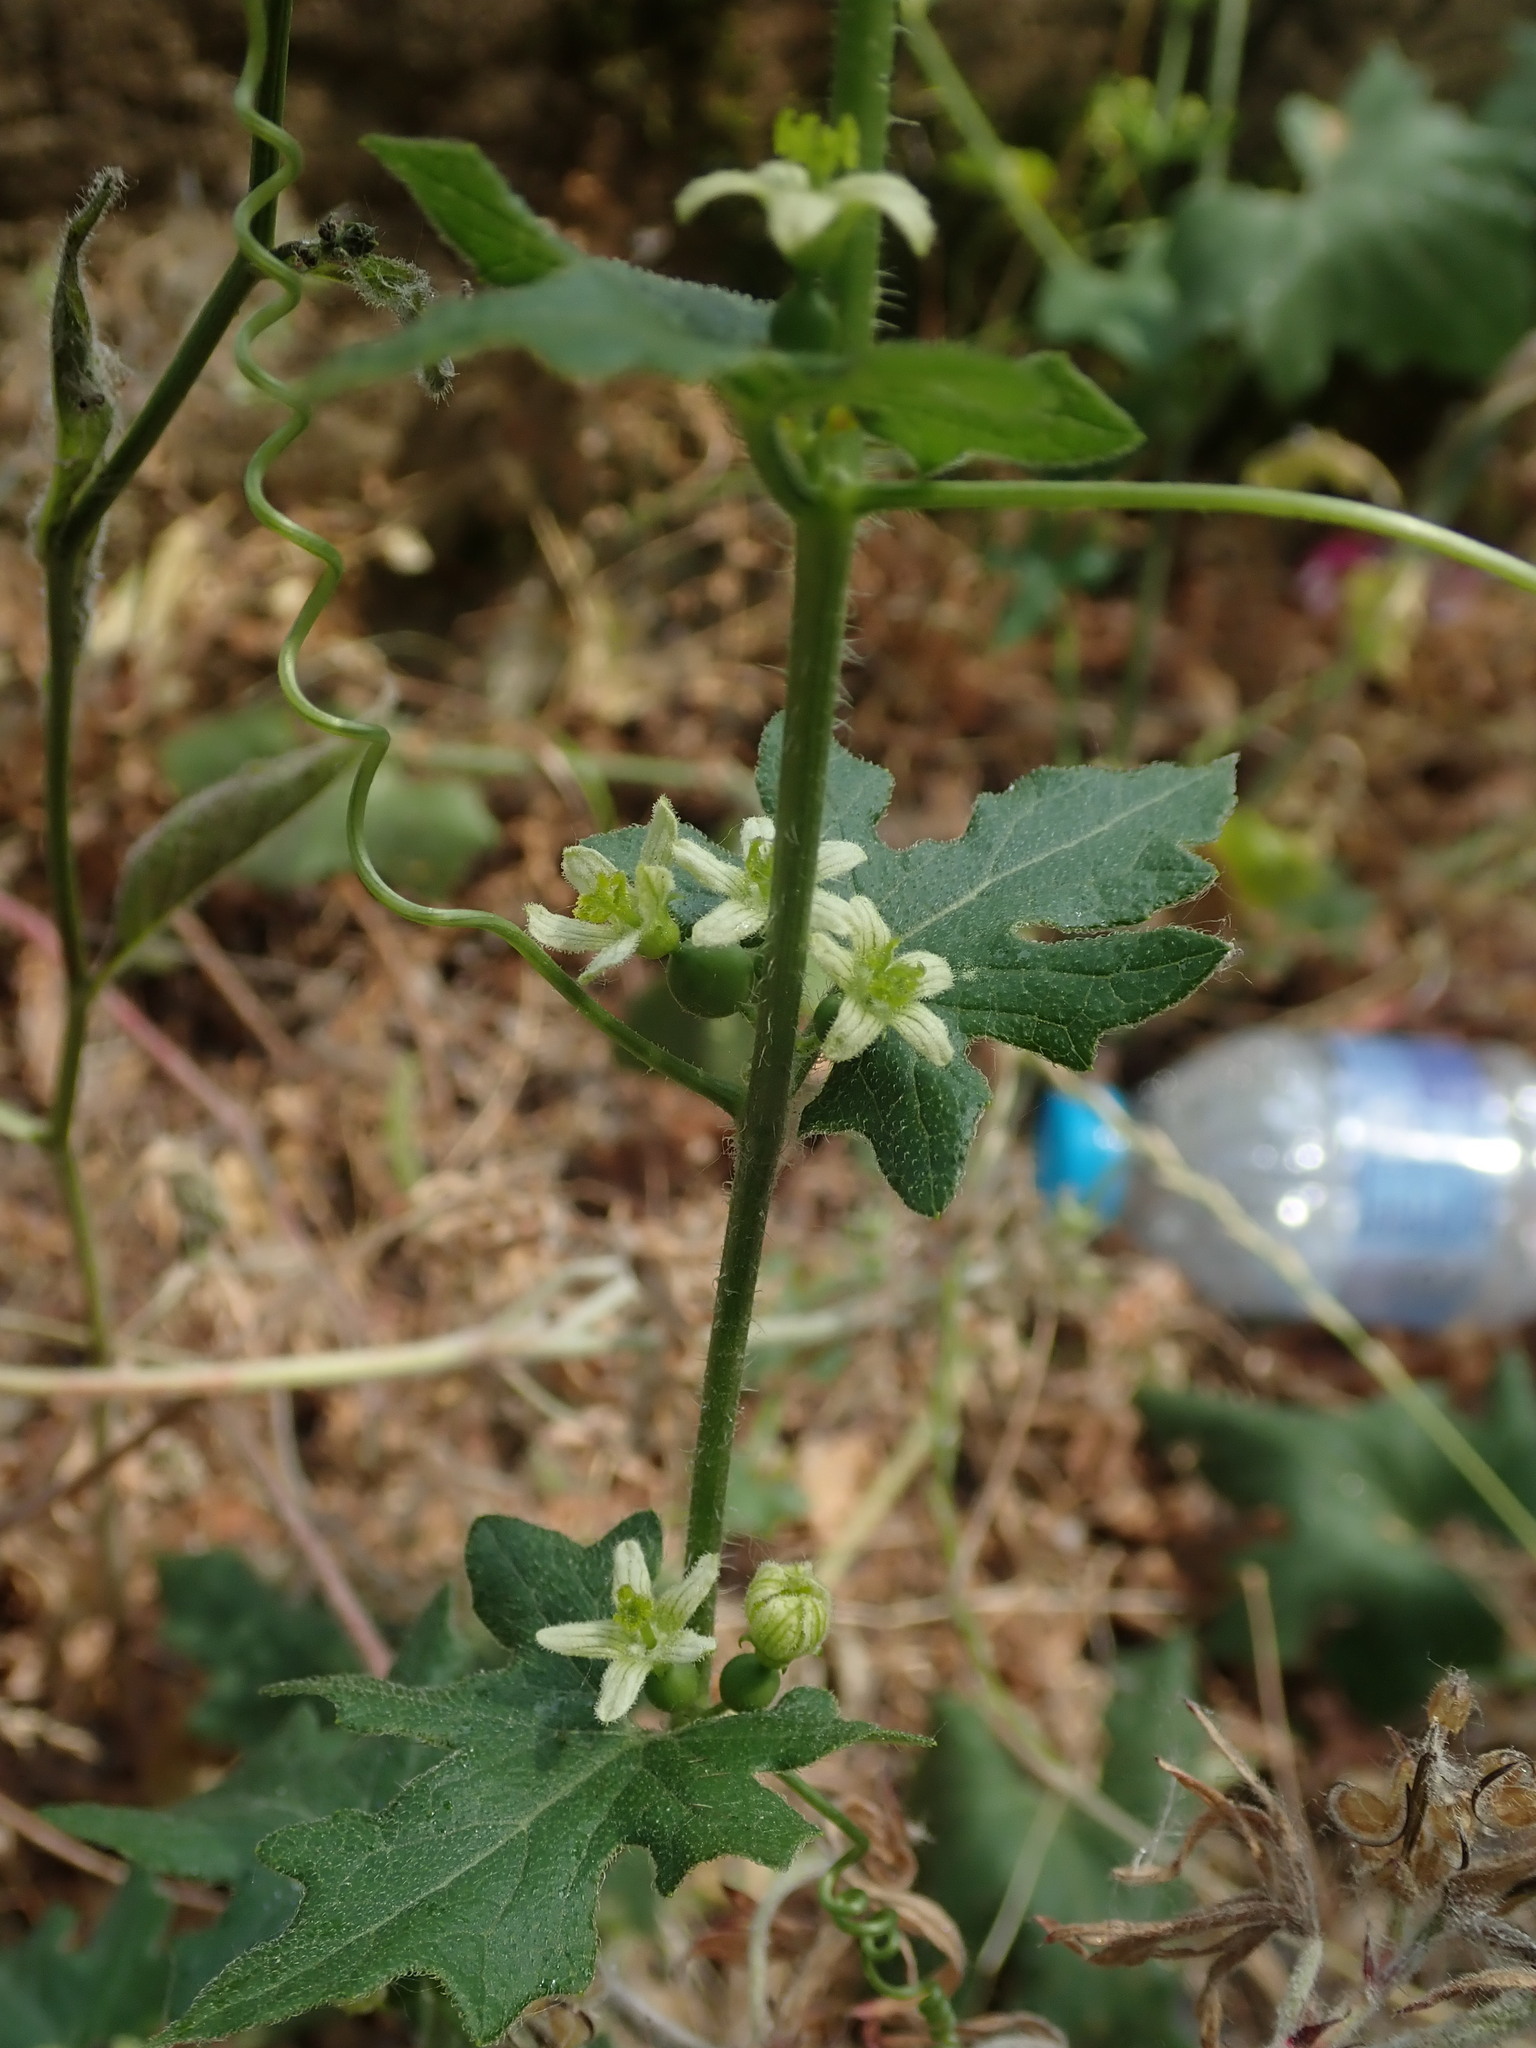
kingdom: Plantae
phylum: Tracheophyta
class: Magnoliopsida
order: Cucurbitales
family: Cucurbitaceae
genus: Bryonia
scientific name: Bryonia dioica
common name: White bryony
